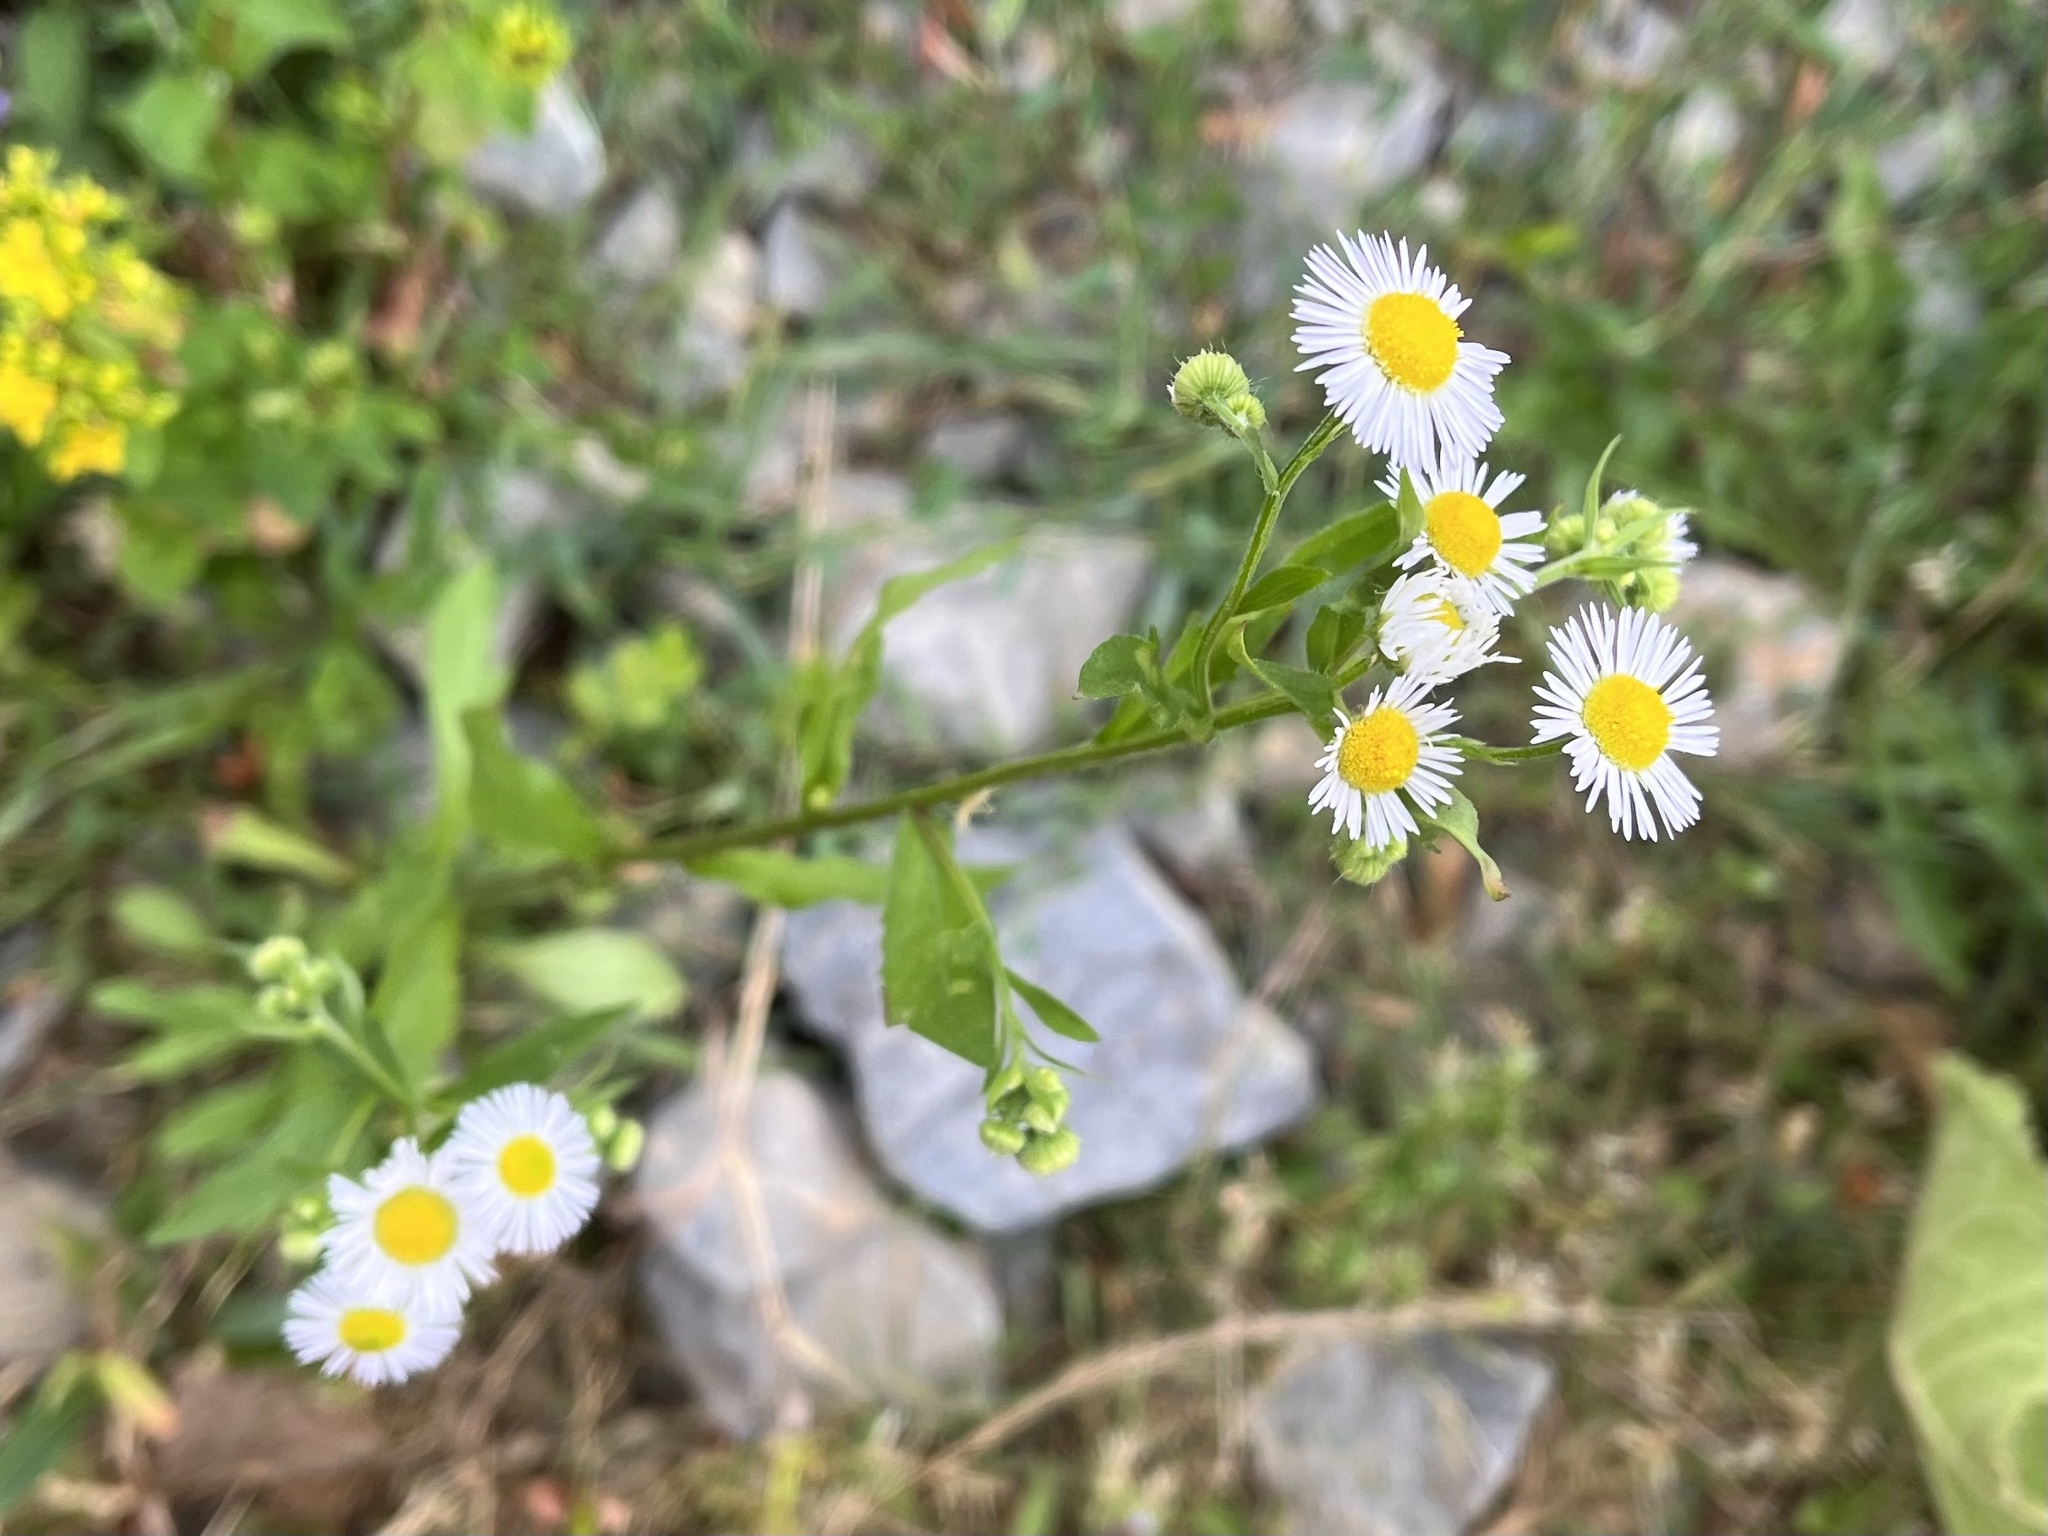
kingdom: Plantae
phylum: Tracheophyta
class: Magnoliopsida
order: Asterales
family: Asteraceae
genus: Erigeron
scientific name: Erigeron annuus
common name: Tall fleabane
